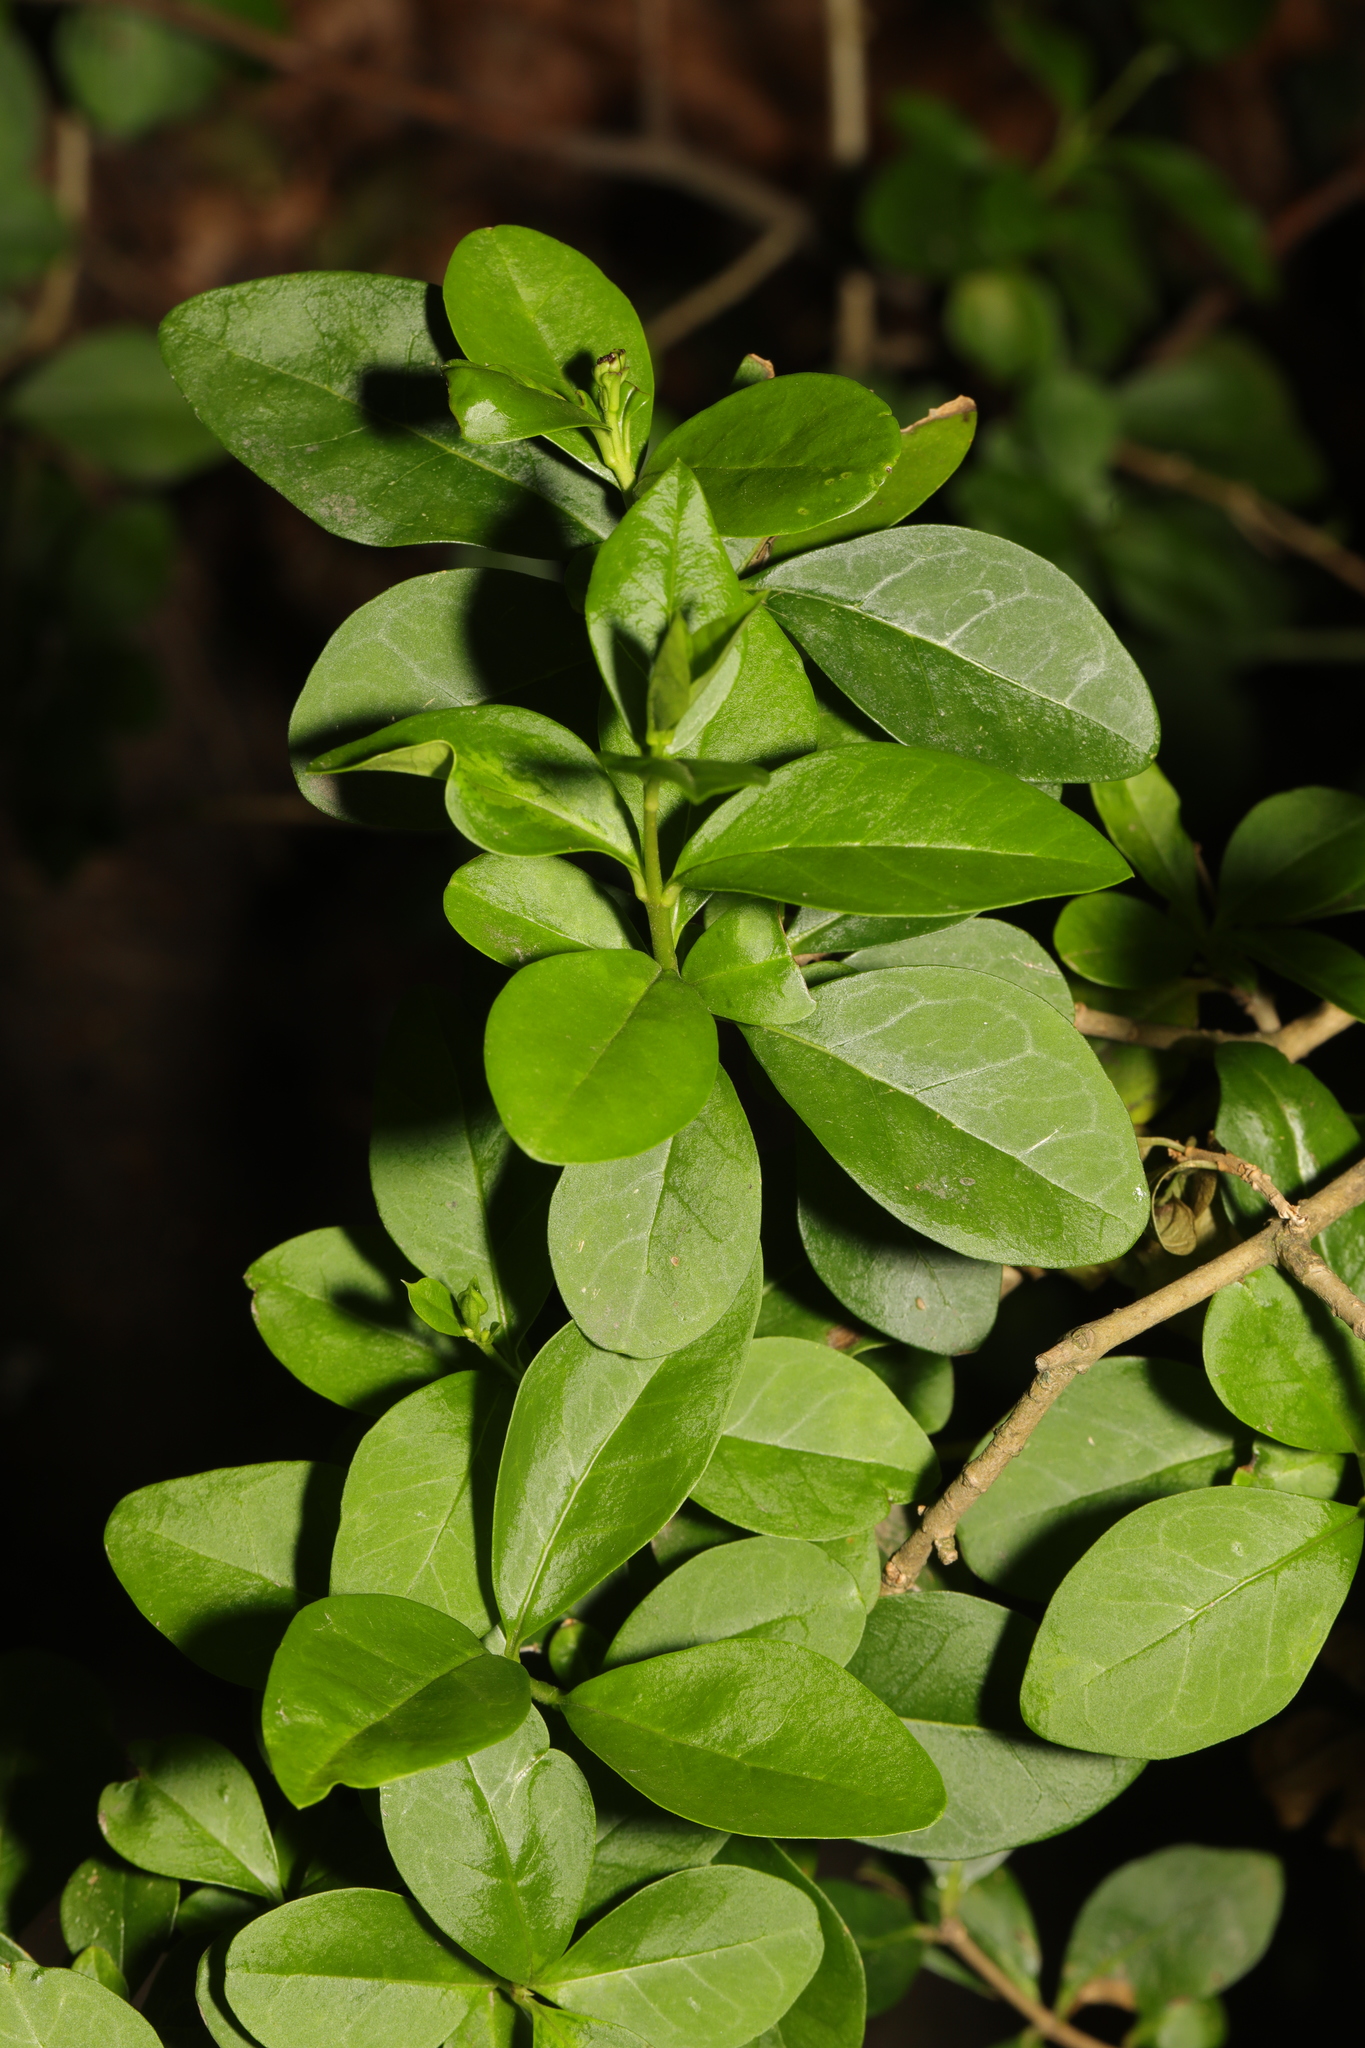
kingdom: Plantae
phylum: Tracheophyta
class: Magnoliopsida
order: Lamiales
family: Oleaceae
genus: Ligustrum
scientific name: Ligustrum ovalifolium
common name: California privet
